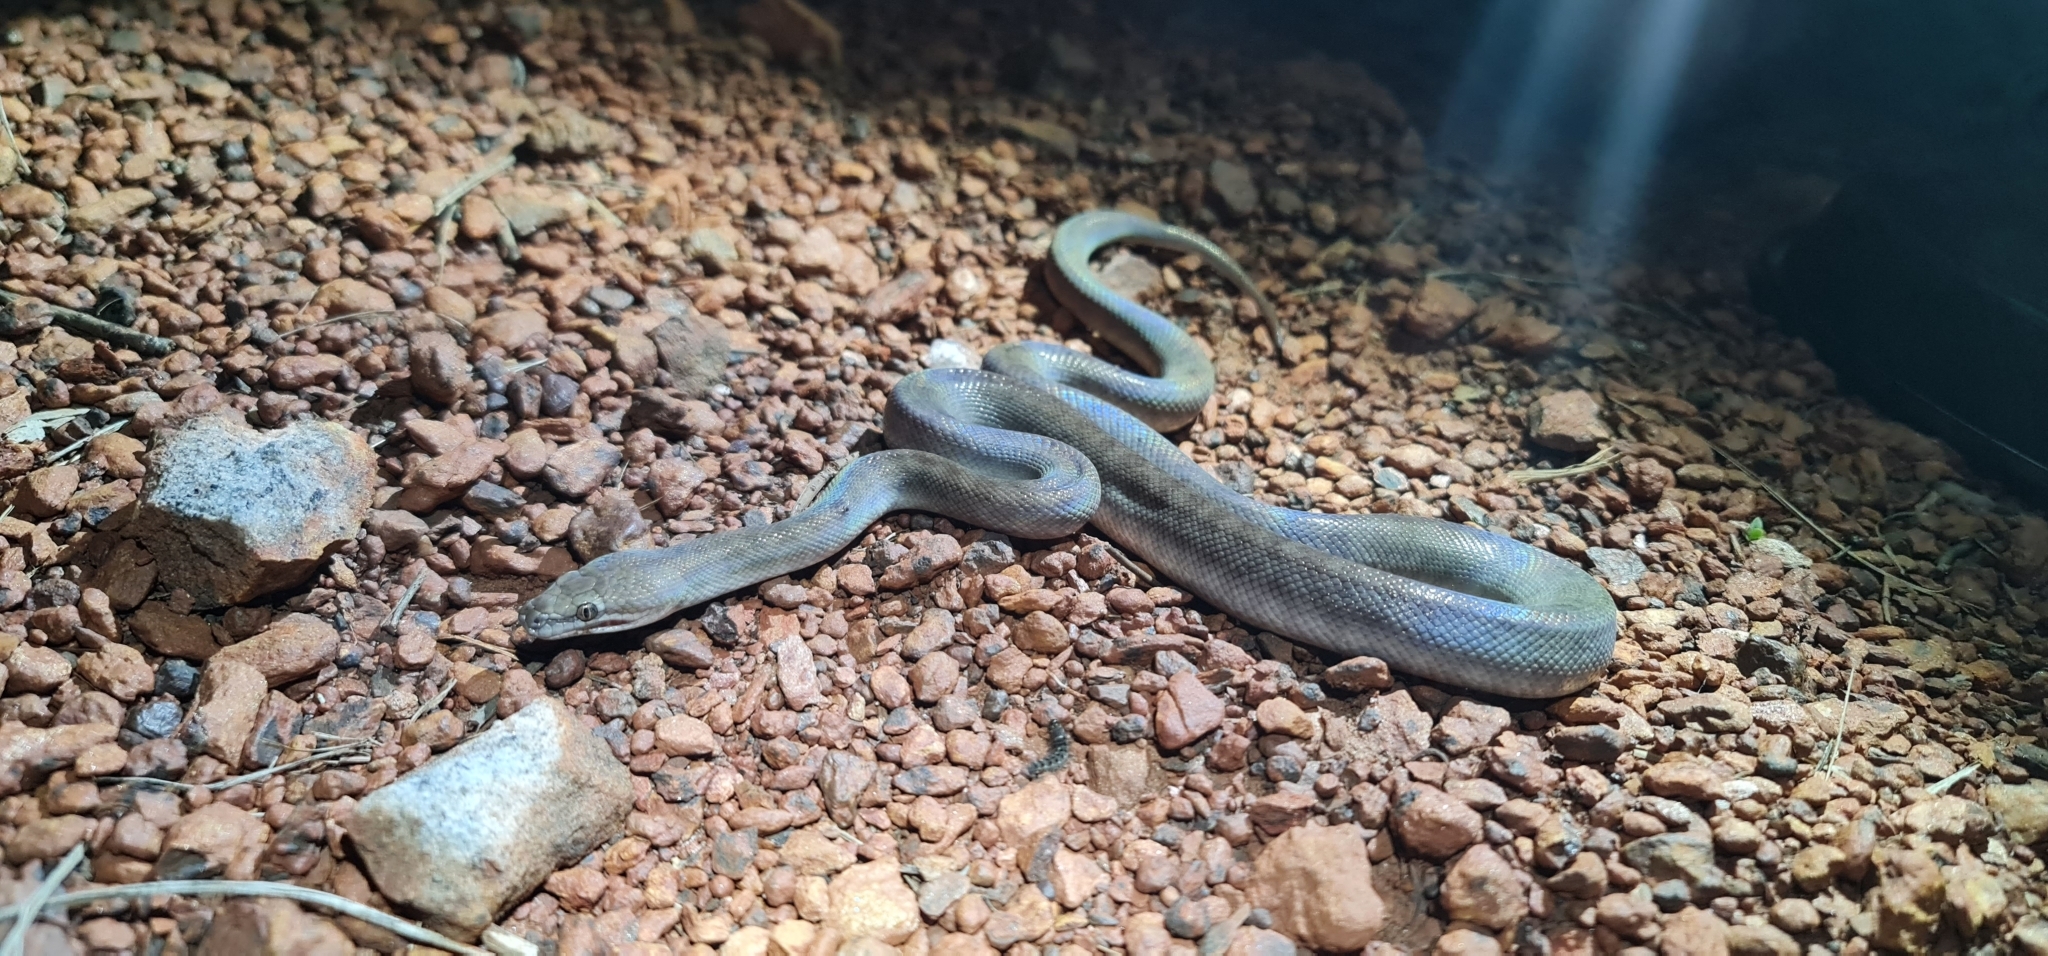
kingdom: Animalia
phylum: Chordata
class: Squamata
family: Pythonidae
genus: Antaresia
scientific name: Antaresia childreni
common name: Children's python
